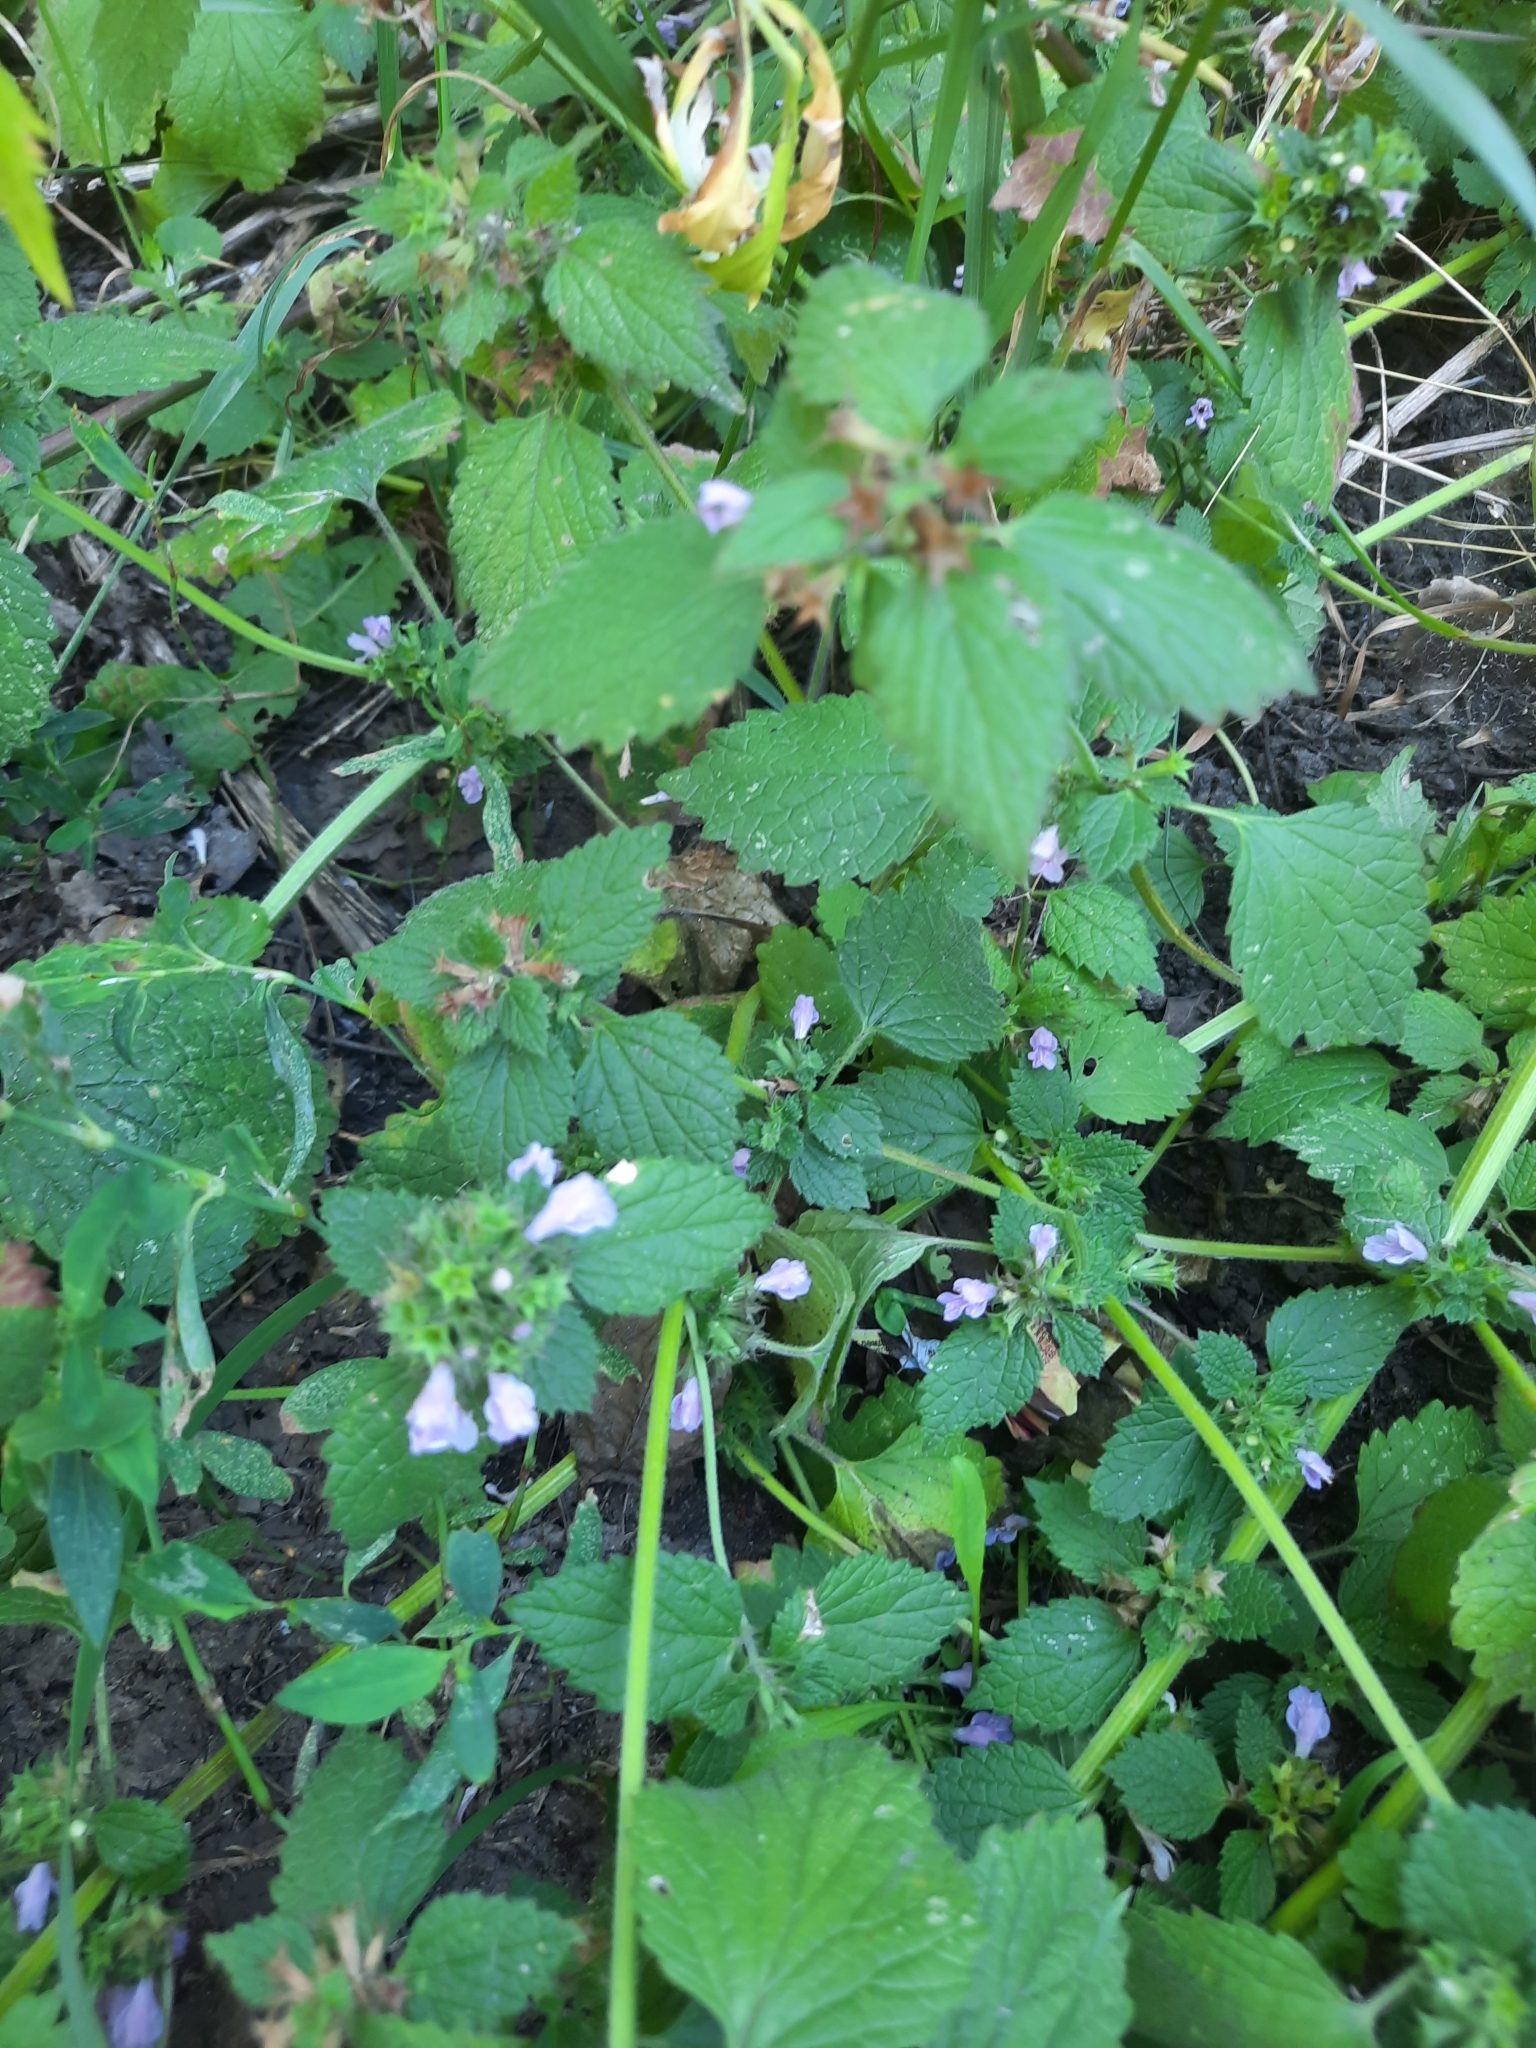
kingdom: Plantae
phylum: Tracheophyta
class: Magnoliopsida
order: Lamiales
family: Lamiaceae
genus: Ballota
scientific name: Ballota nigra
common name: Black horehound
